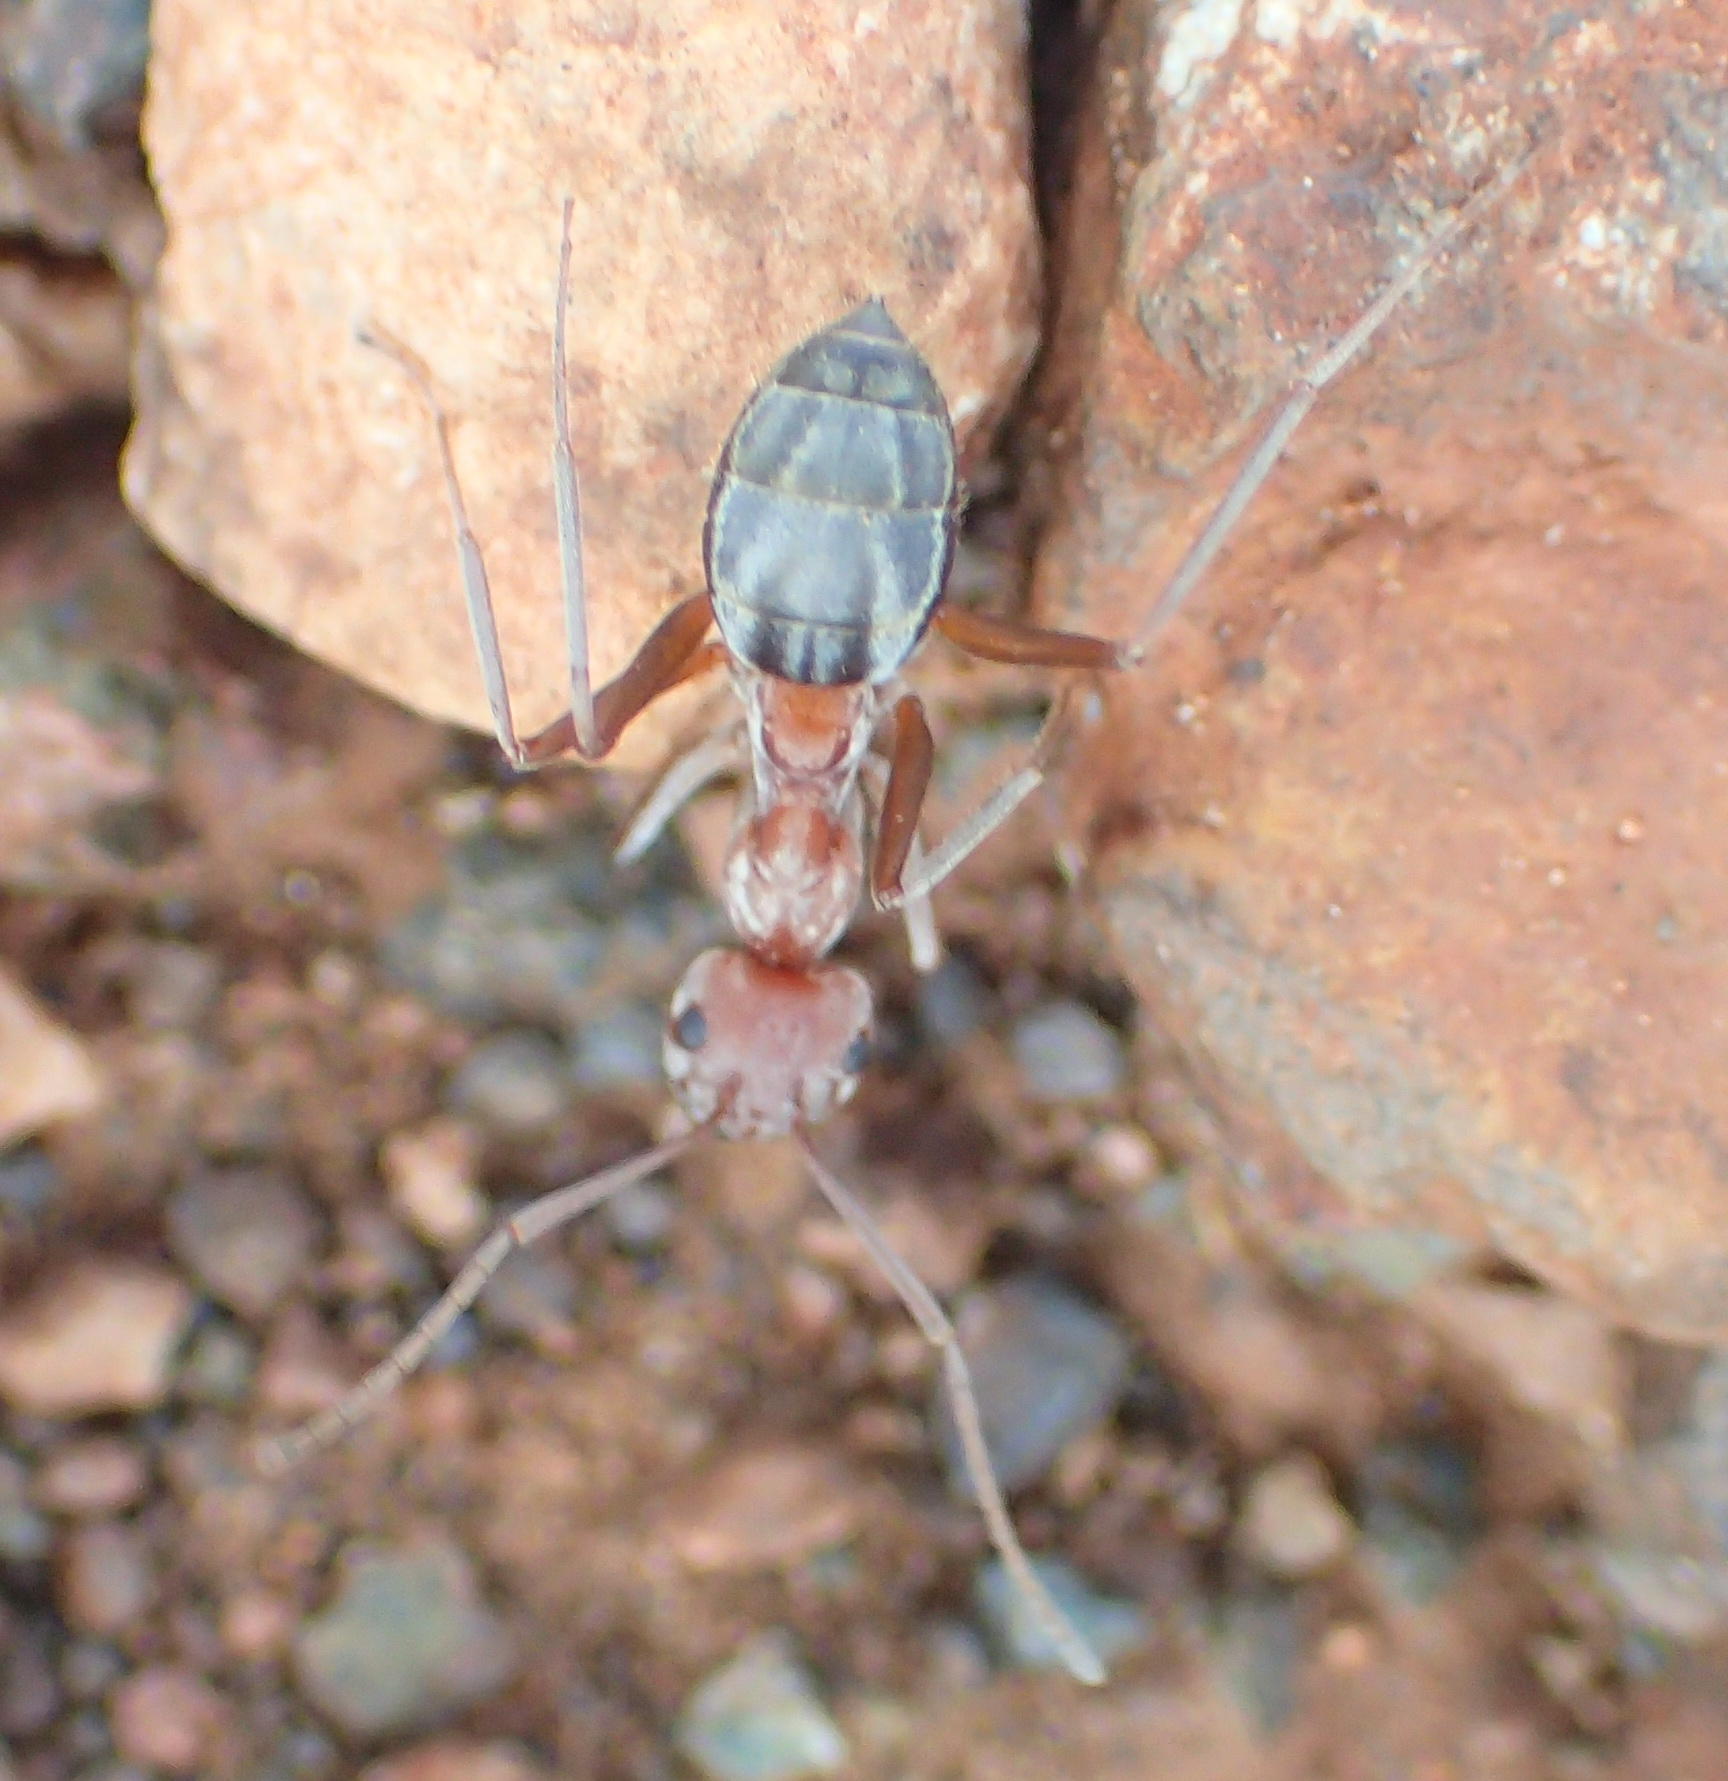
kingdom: Animalia
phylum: Arthropoda
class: Insecta
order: Hymenoptera
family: Formicidae
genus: Anoplolepis
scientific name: Anoplolepis custodiens
